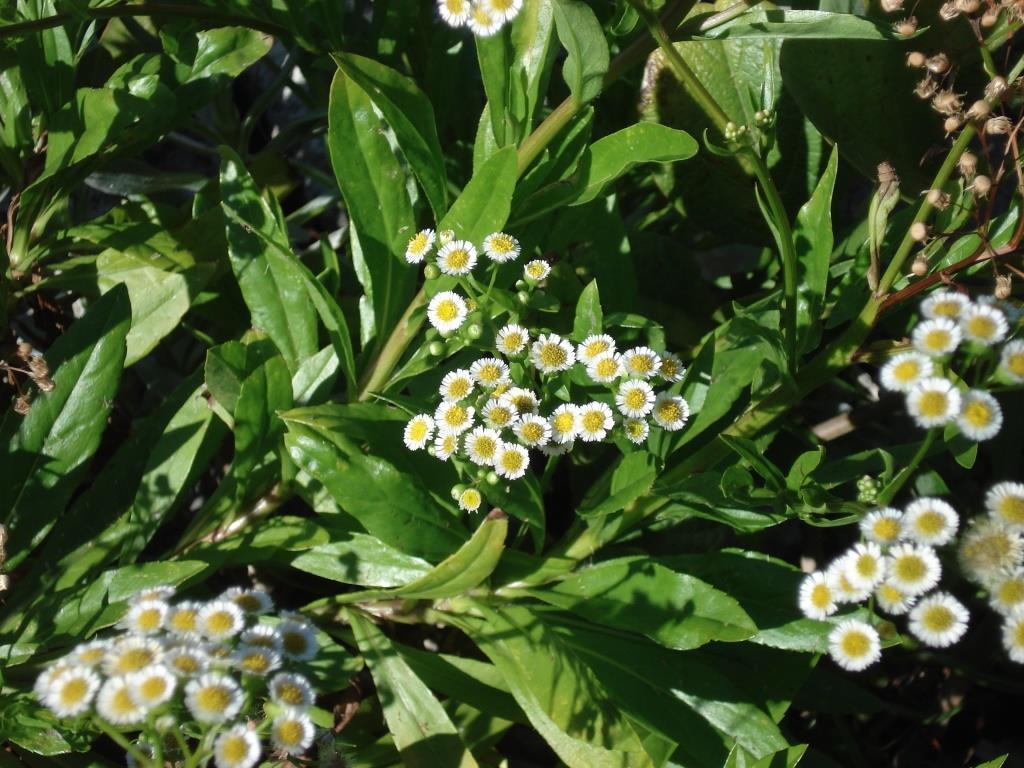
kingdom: Plantae
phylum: Tracheophyta
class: Magnoliopsida
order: Asterales
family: Asteraceae
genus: Erigeron
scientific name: Erigeron darrellianus
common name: Darrell's fleabane
